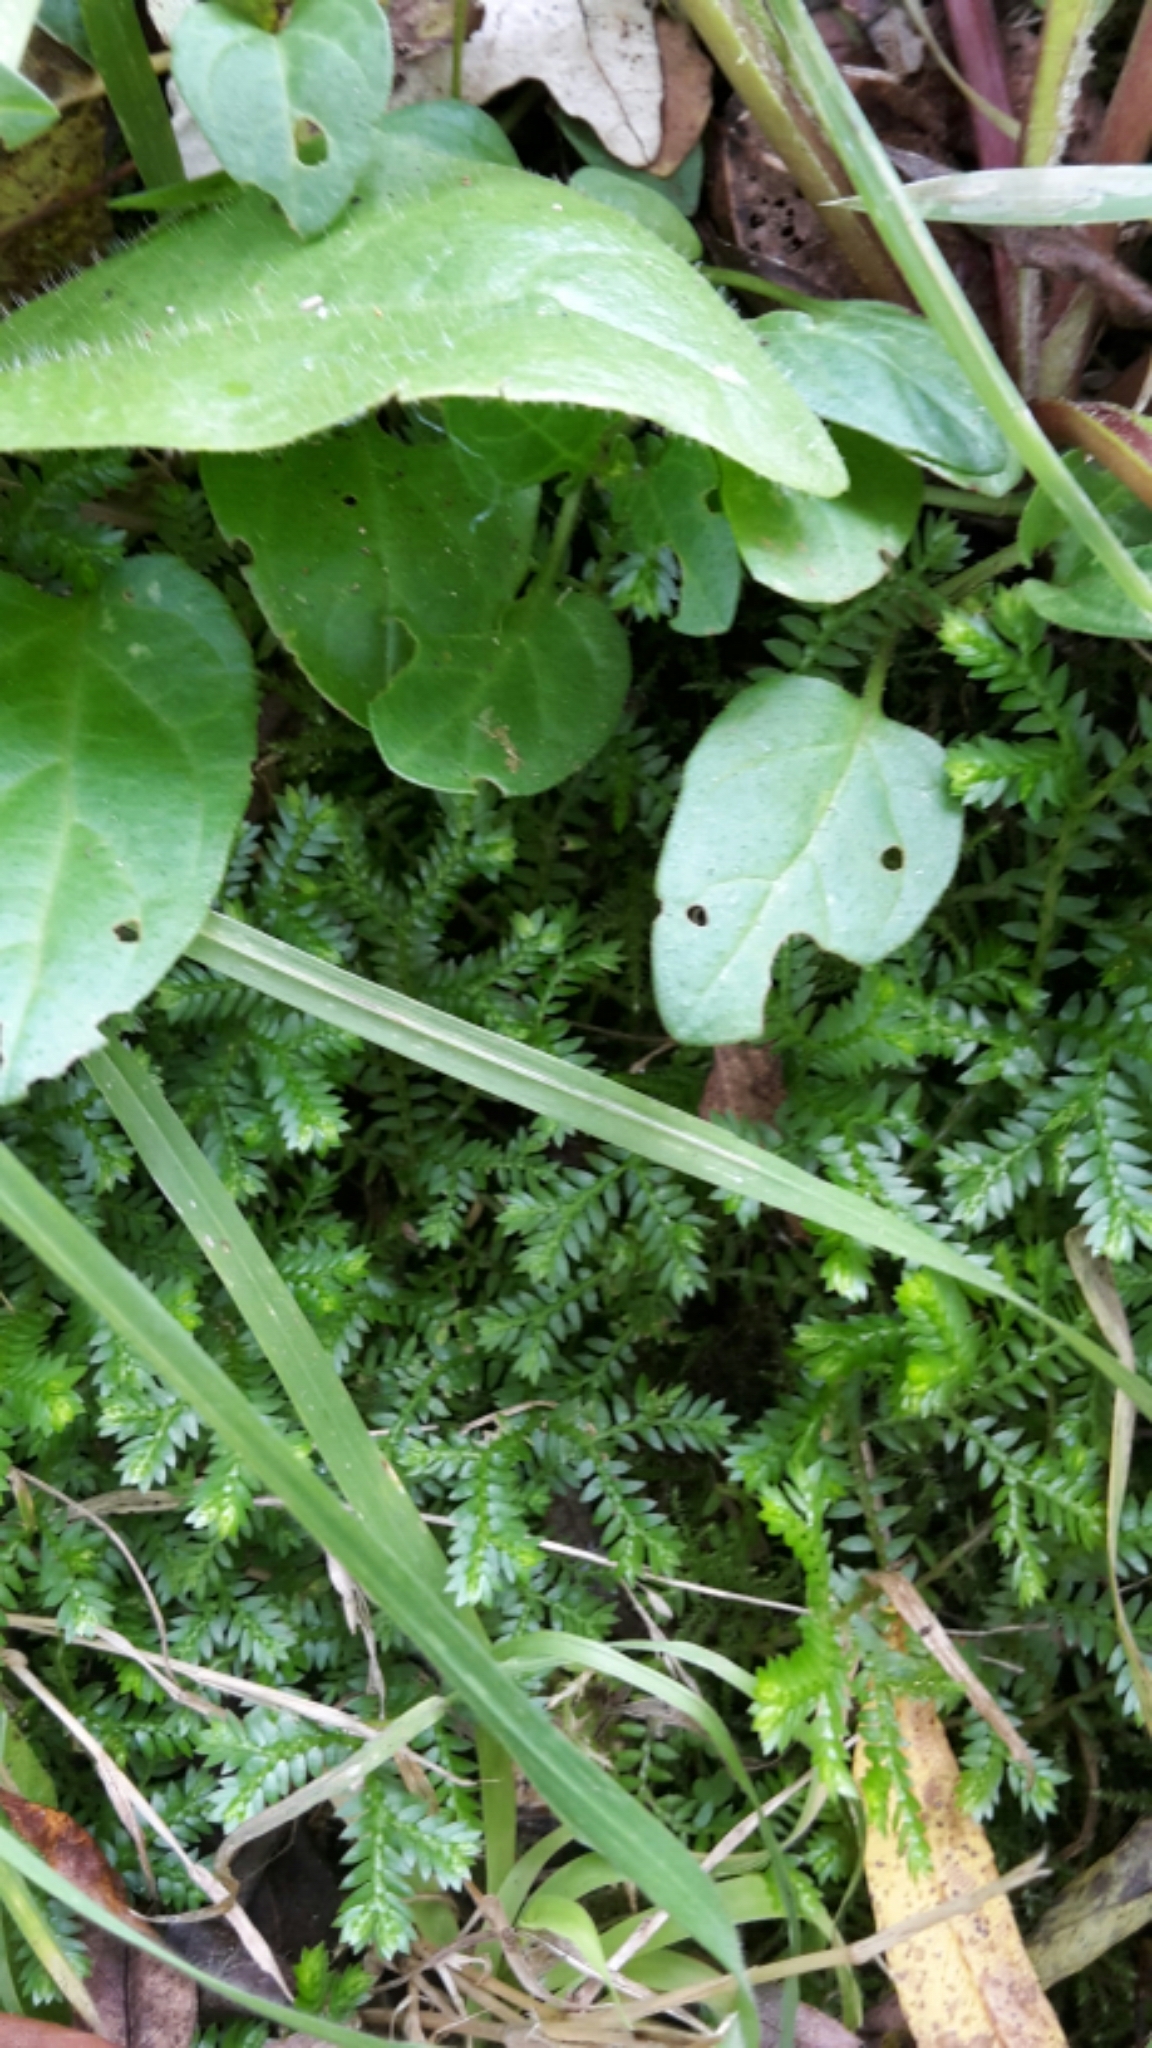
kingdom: Plantae
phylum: Tracheophyta
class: Lycopodiopsida
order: Selaginellales
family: Selaginellaceae
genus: Selaginella
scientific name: Selaginella kraussiana
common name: Krauss' spikemoss
